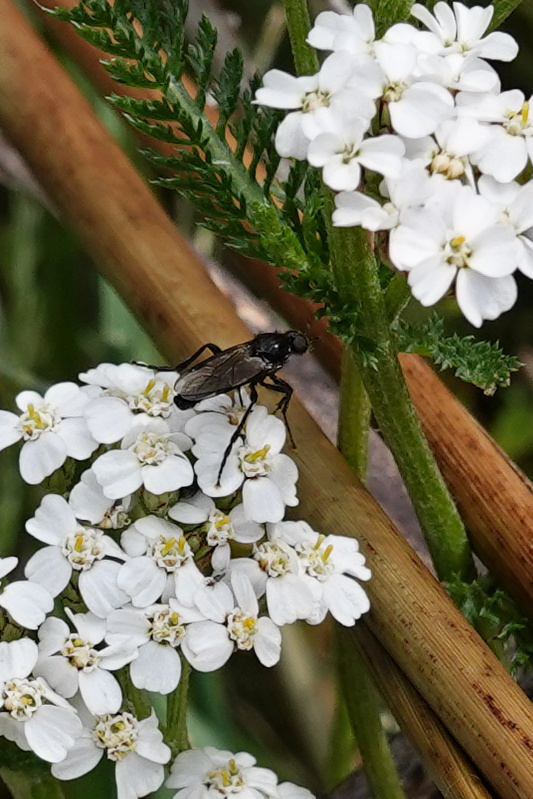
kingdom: Animalia
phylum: Arthropoda
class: Insecta
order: Diptera
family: Bibionidae
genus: Dilophus
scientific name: Dilophus nigrostigma
